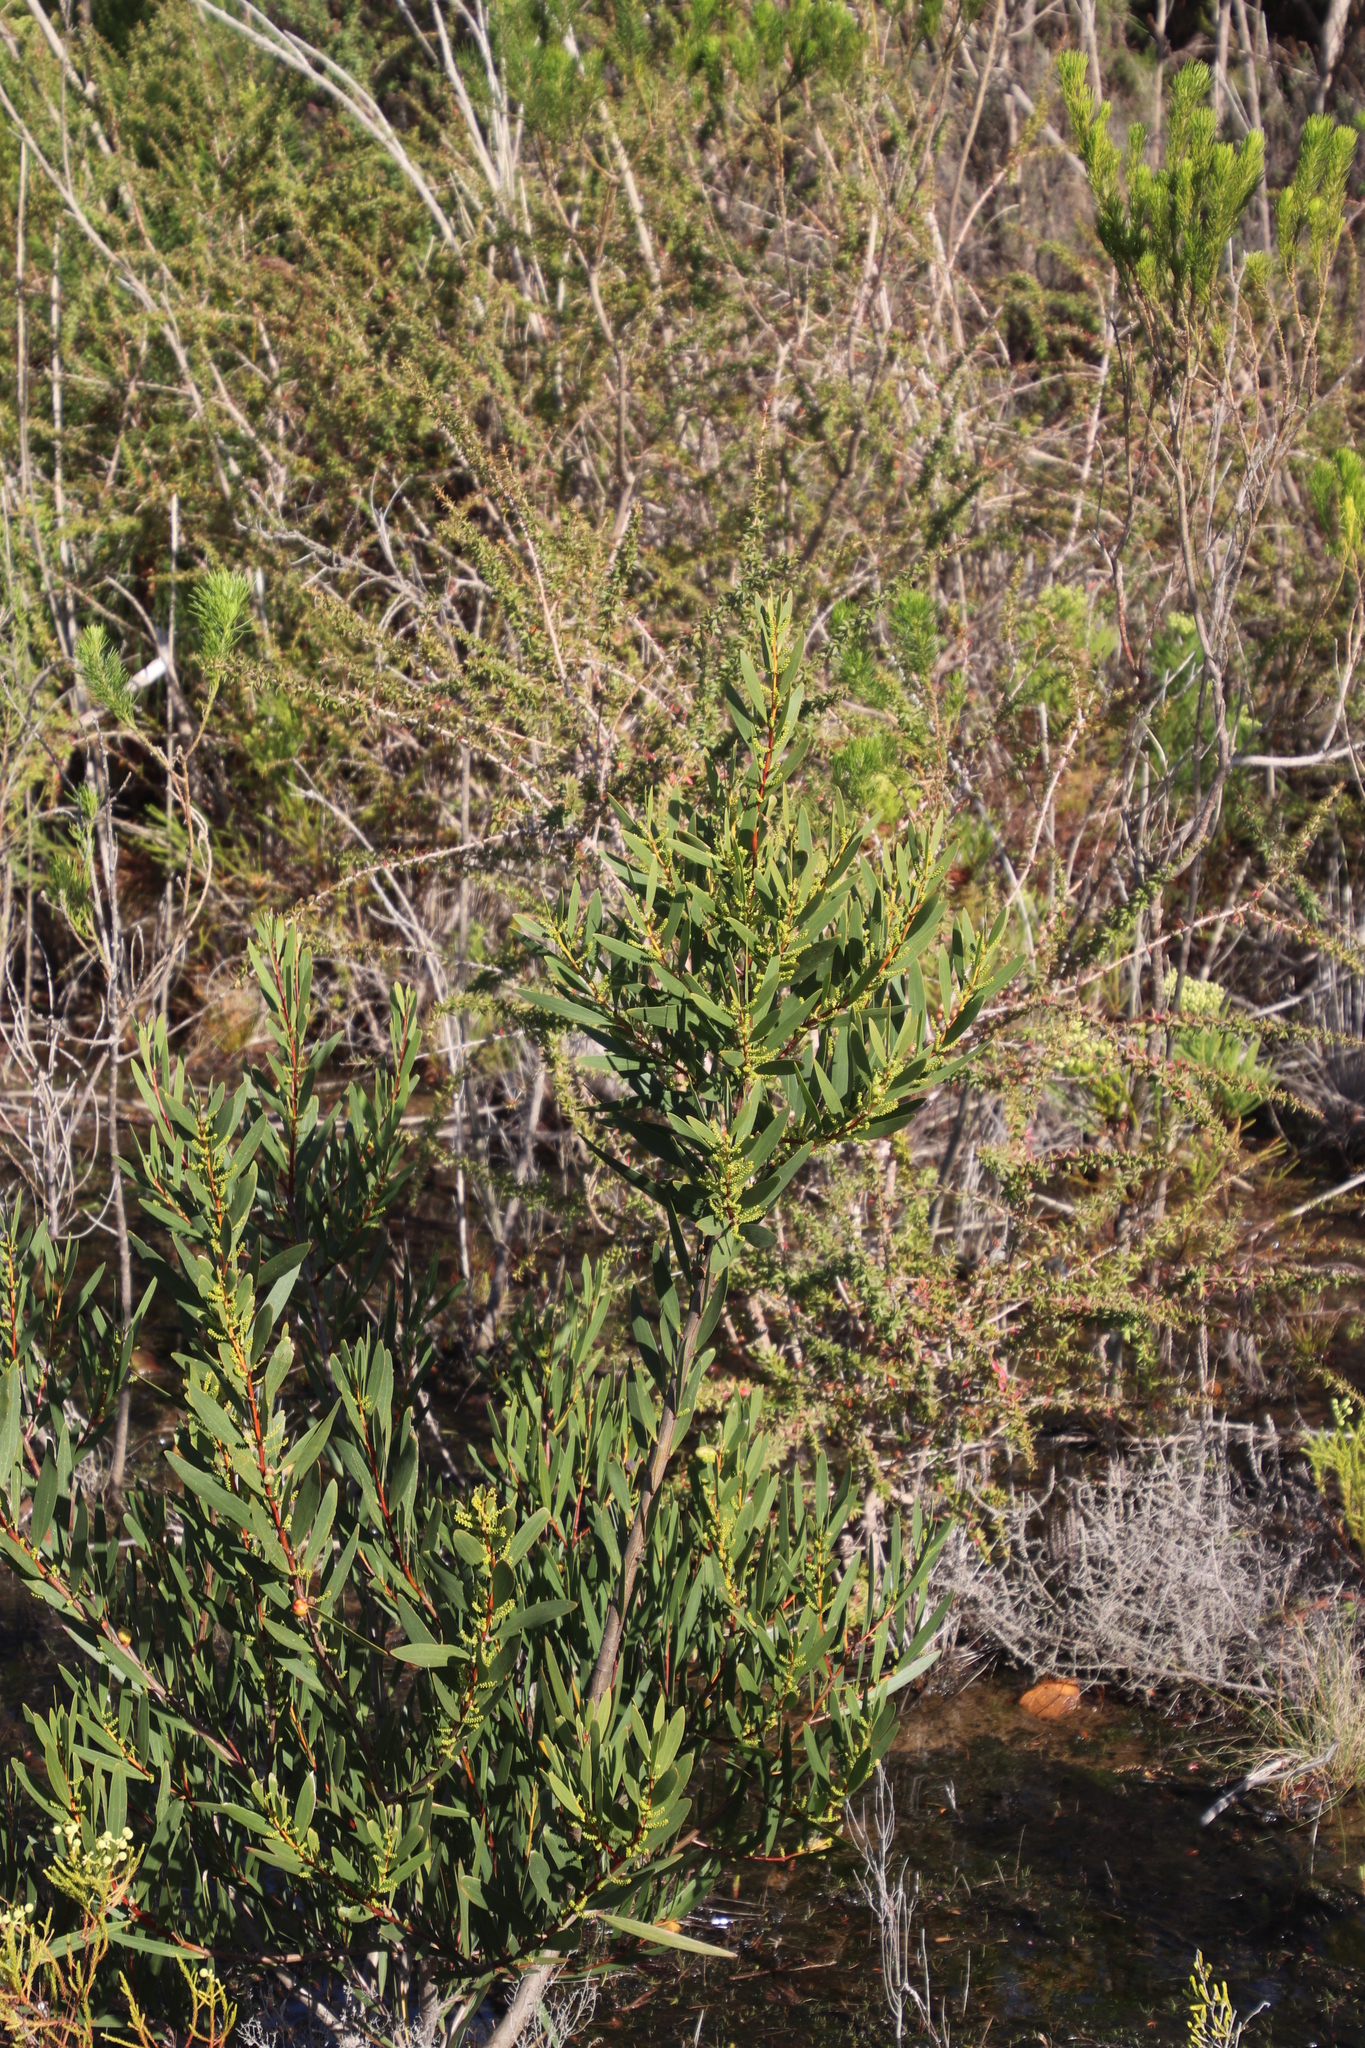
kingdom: Plantae
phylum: Tracheophyta
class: Magnoliopsida
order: Fabales
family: Fabaceae
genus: Acacia
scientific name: Acacia longifolia
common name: Sydney golden wattle
